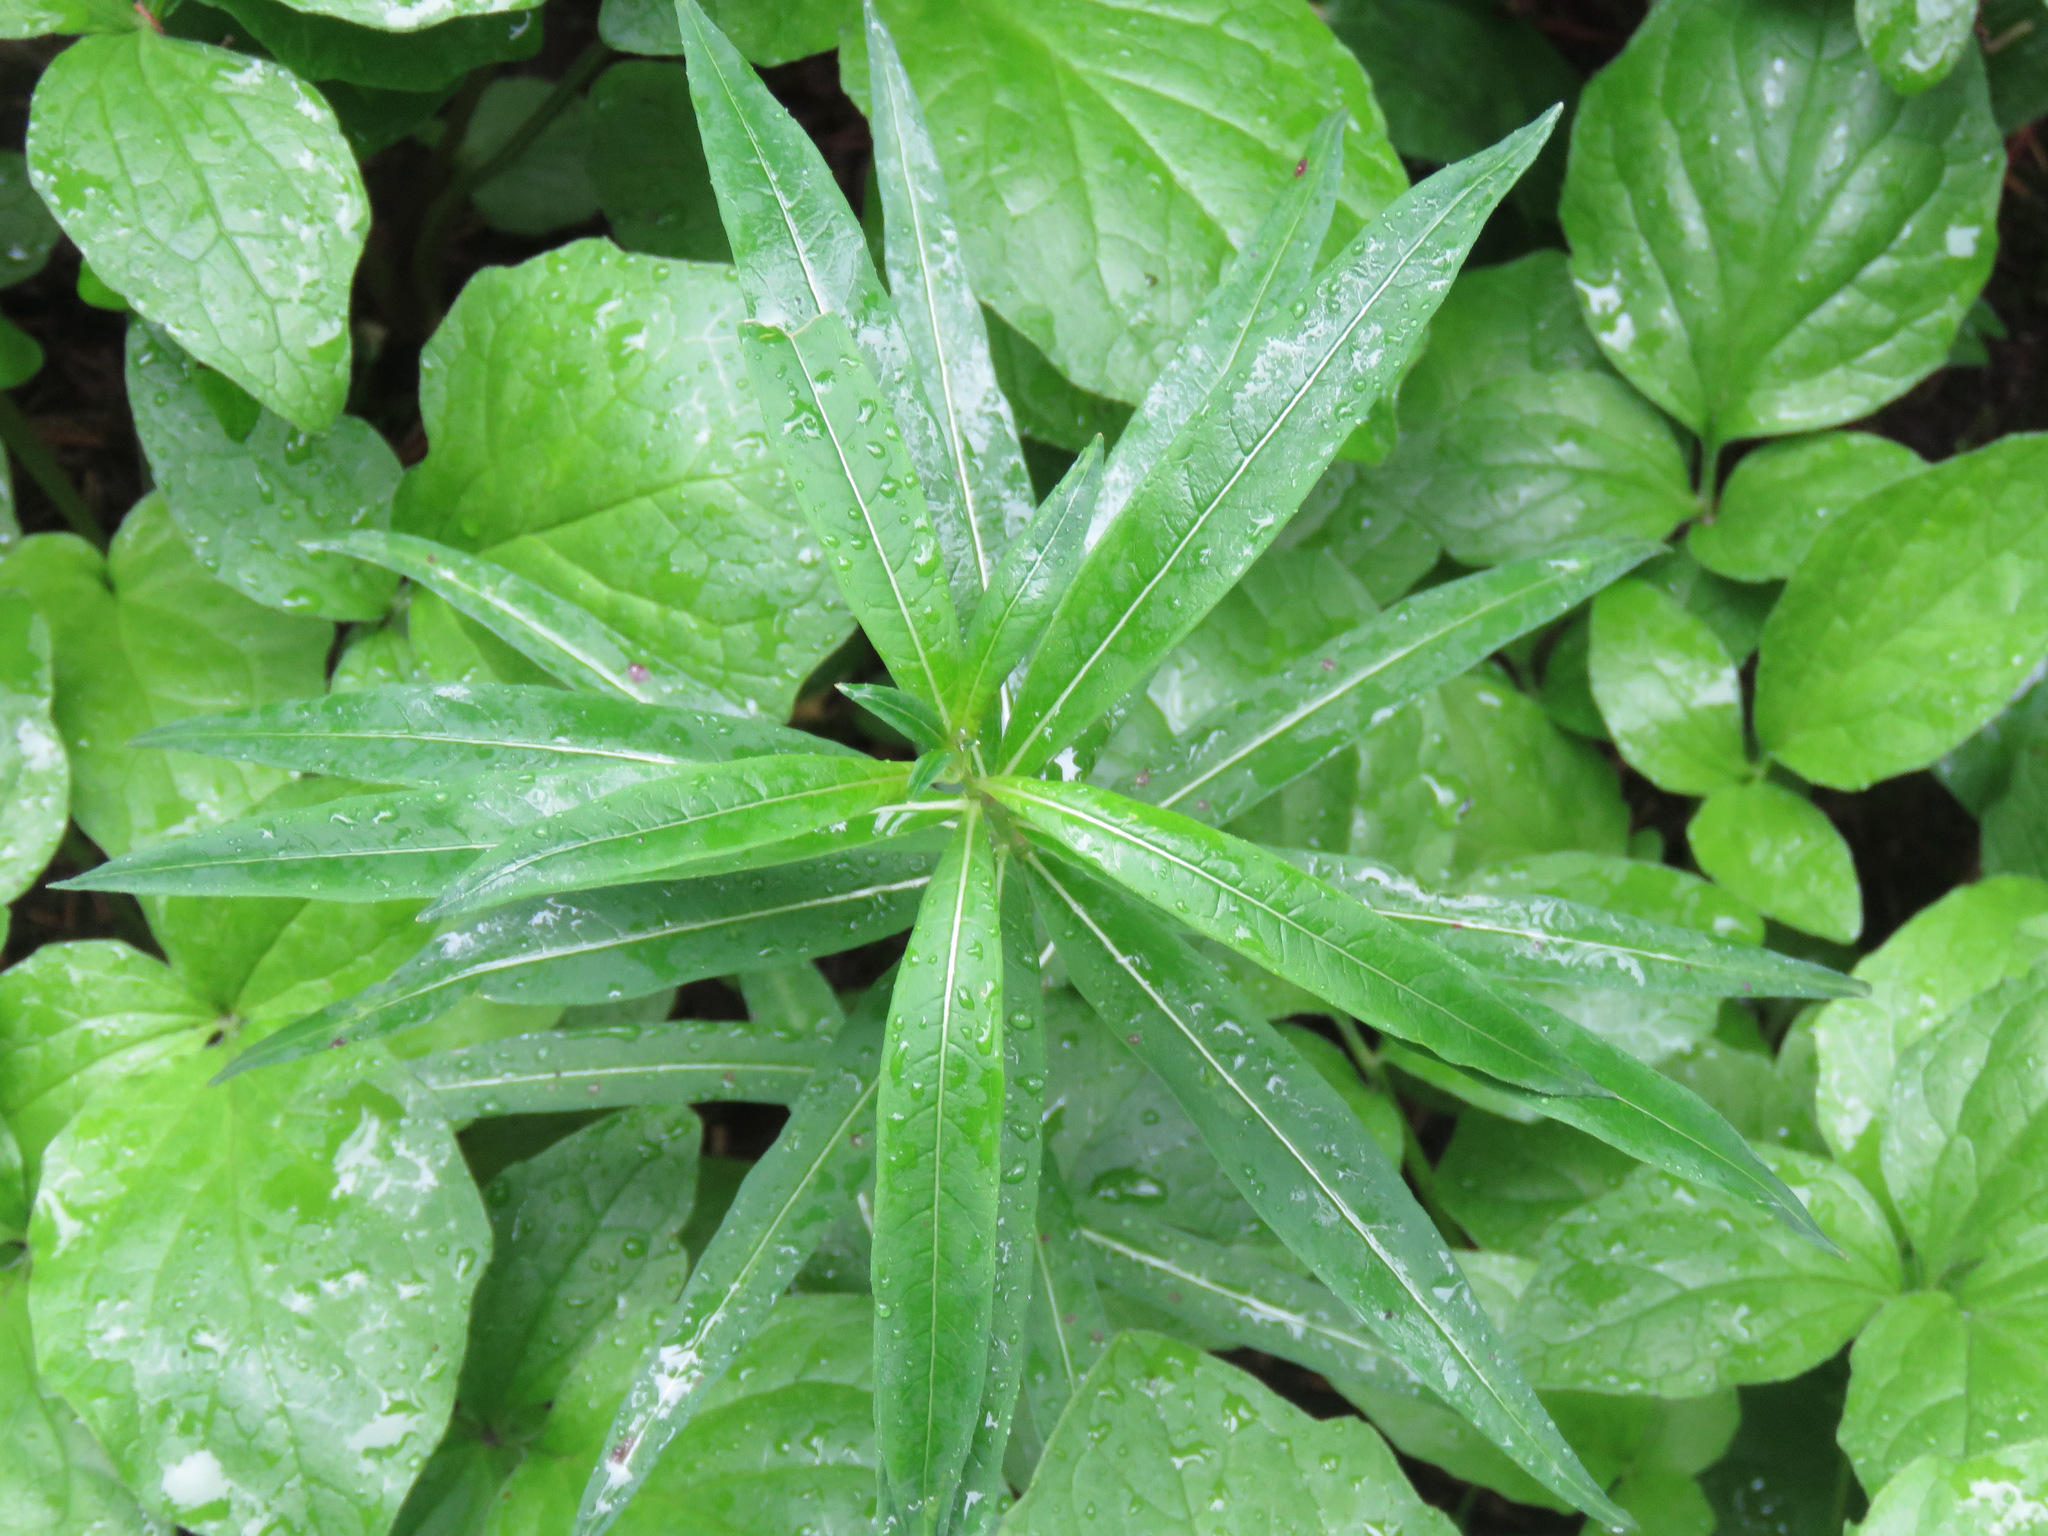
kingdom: Plantae
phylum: Tracheophyta
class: Magnoliopsida
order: Myrtales
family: Onagraceae
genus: Chamaenerion
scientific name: Chamaenerion angustifolium
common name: Fireweed
